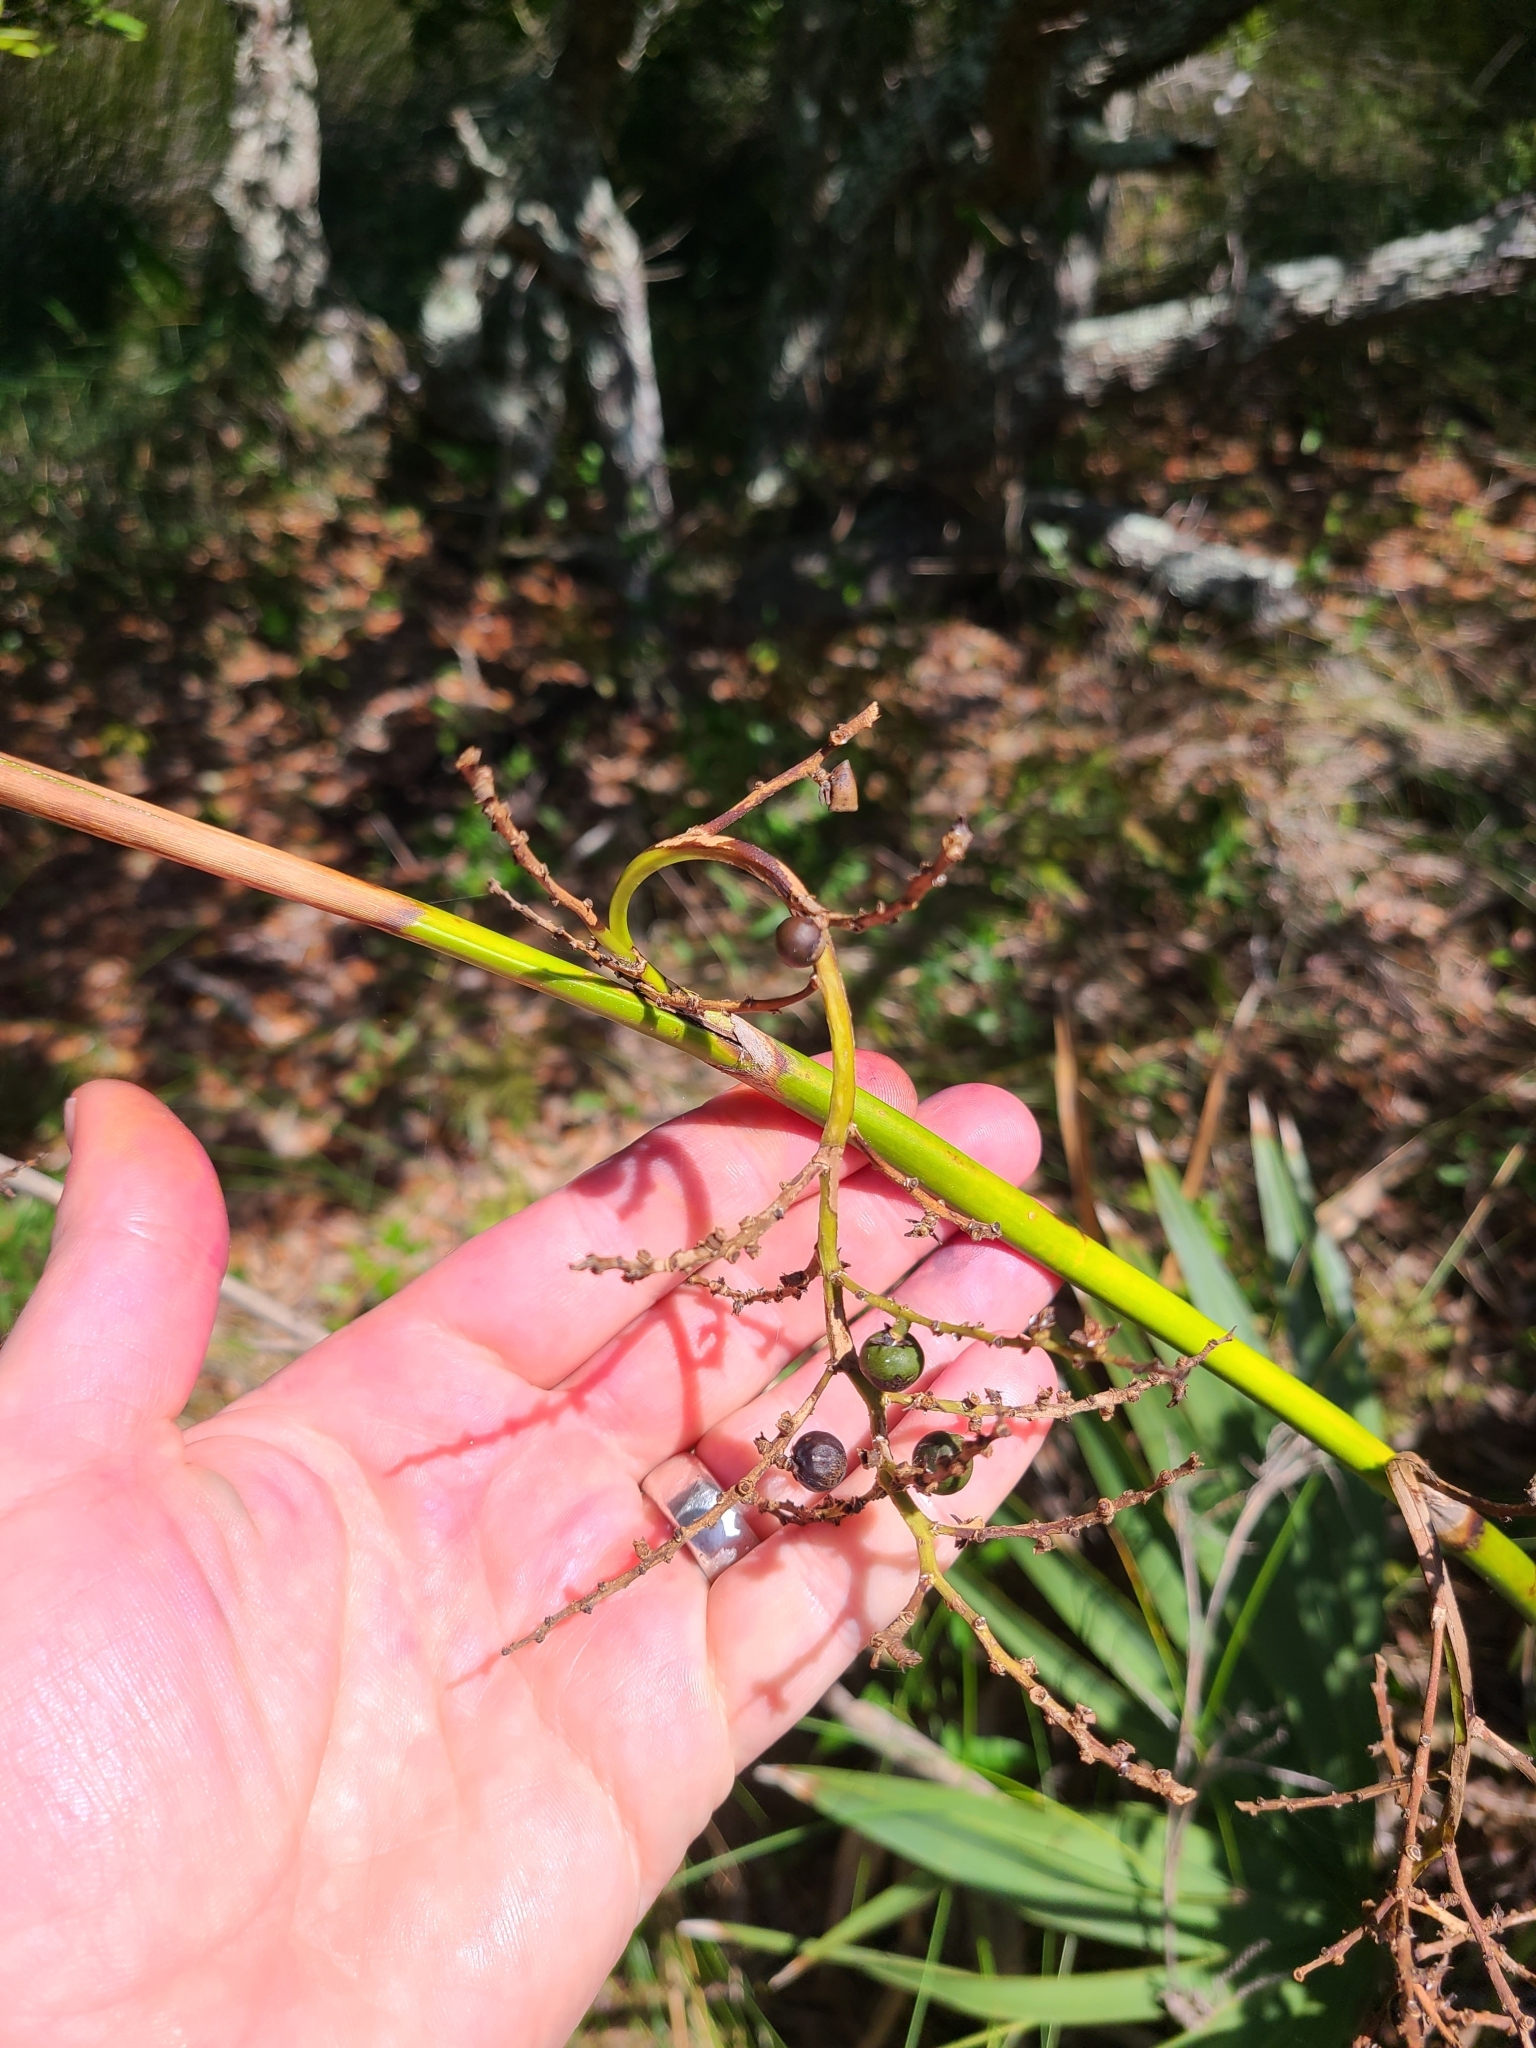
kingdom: Plantae
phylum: Tracheophyta
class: Liliopsida
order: Arecales
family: Arecaceae
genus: Sabal
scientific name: Sabal minor
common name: Dwarf palmetto
